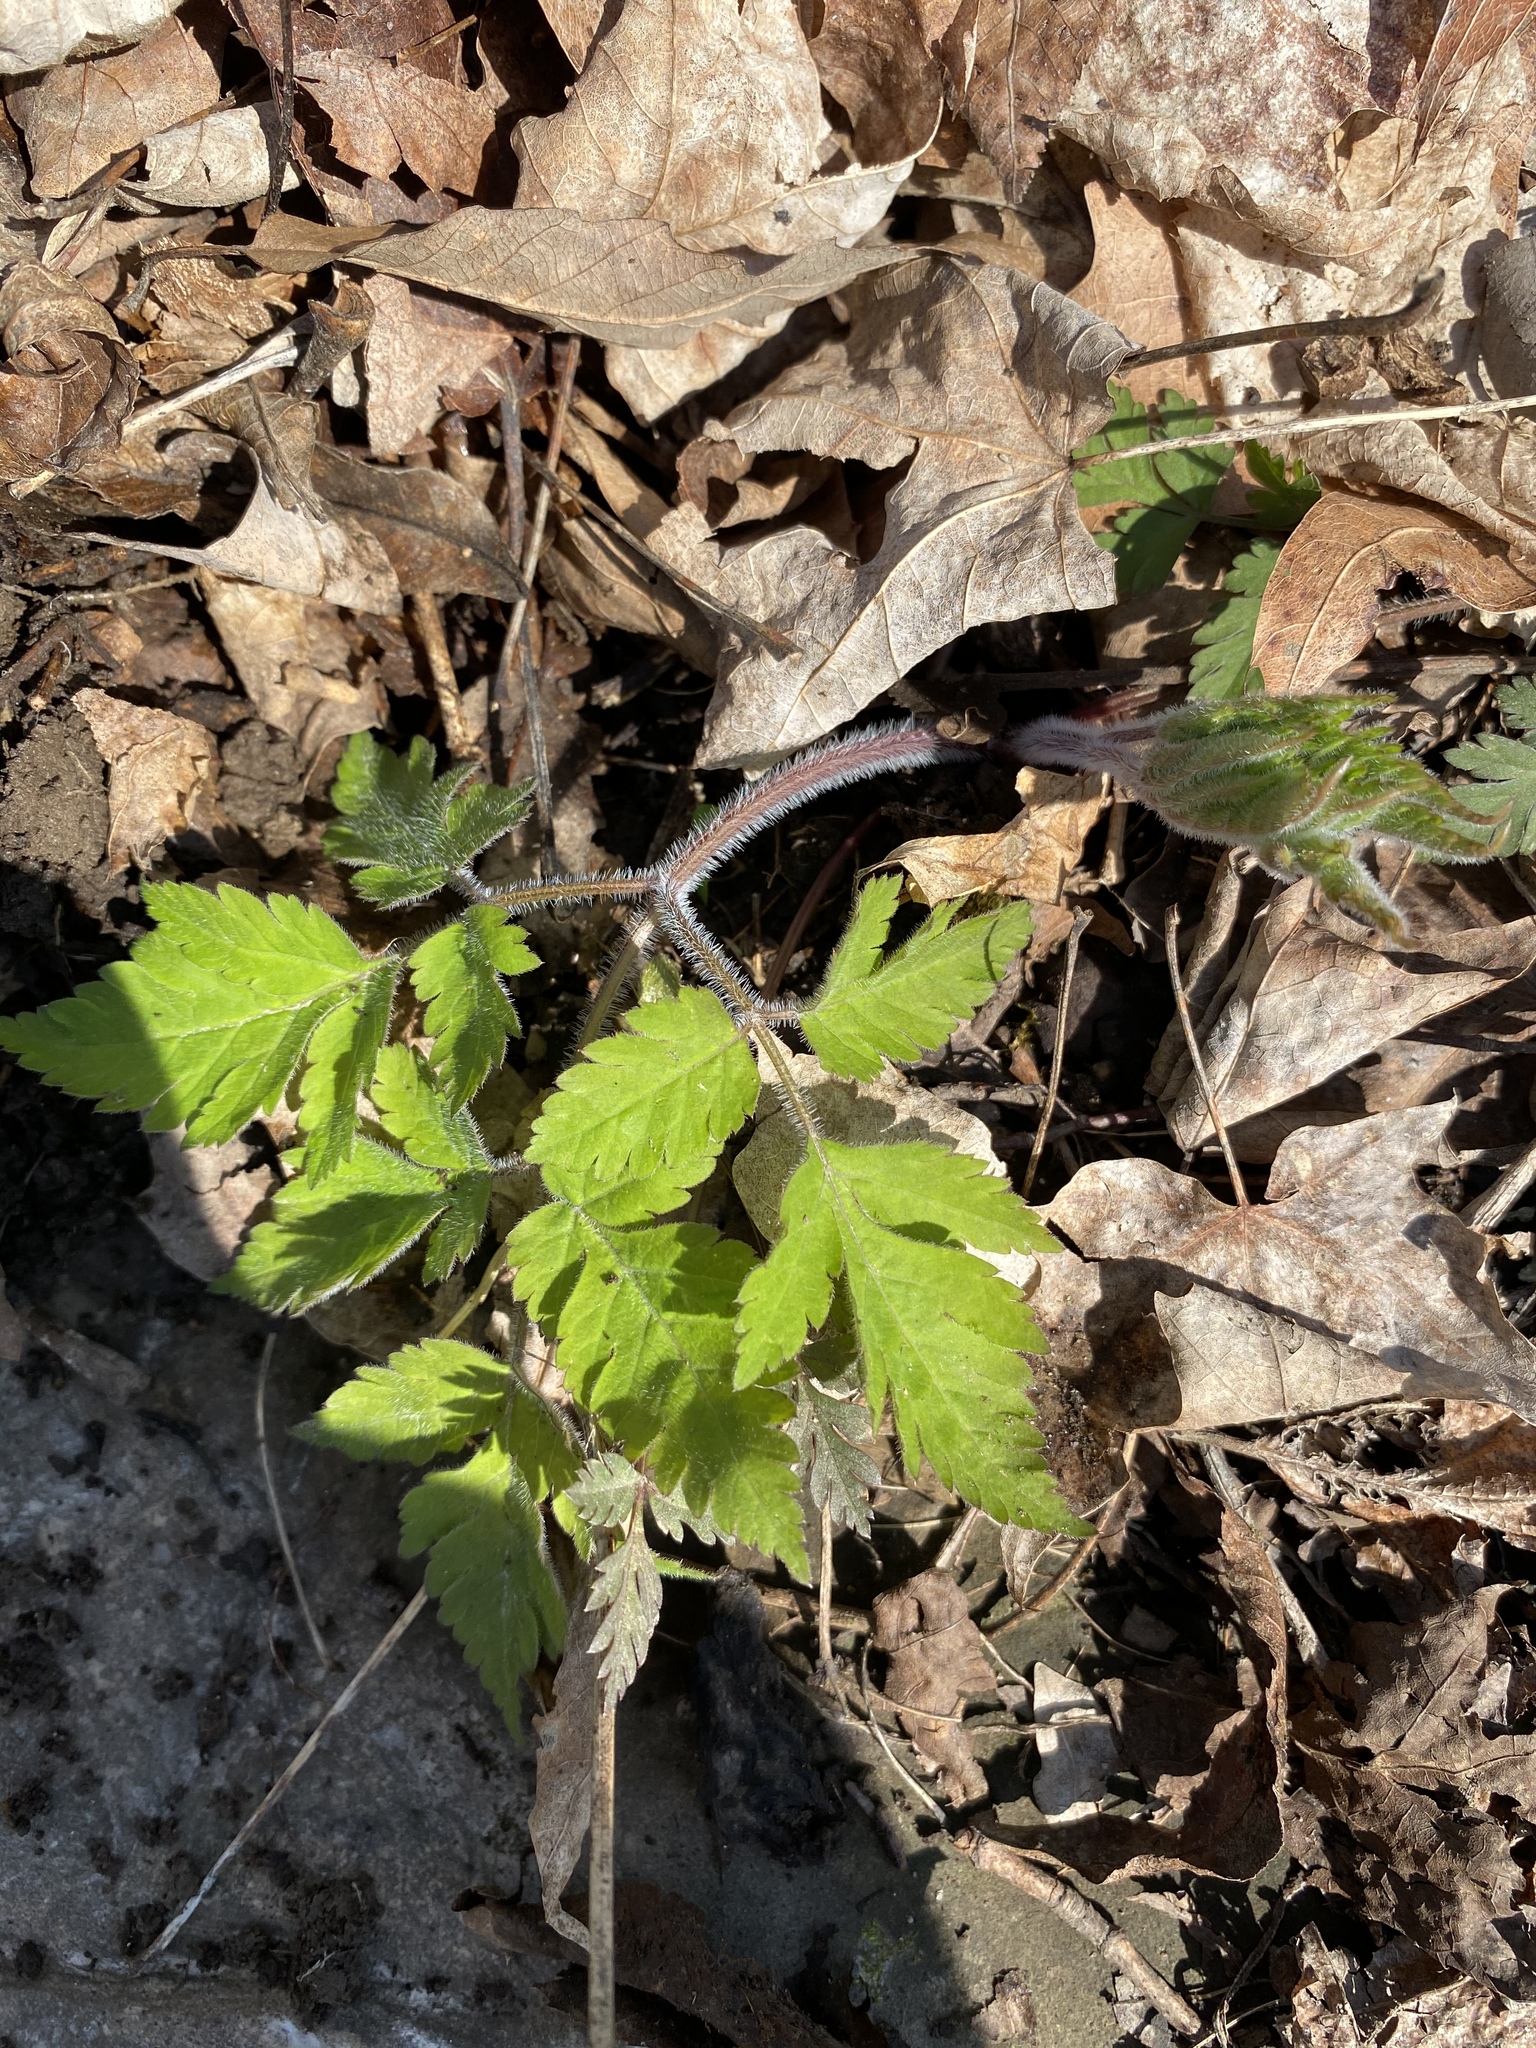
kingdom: Plantae
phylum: Tracheophyta
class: Magnoliopsida
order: Apiales
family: Apiaceae
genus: Osmorhiza
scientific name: Osmorhiza claytonii
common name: Hairy sweet cicely
